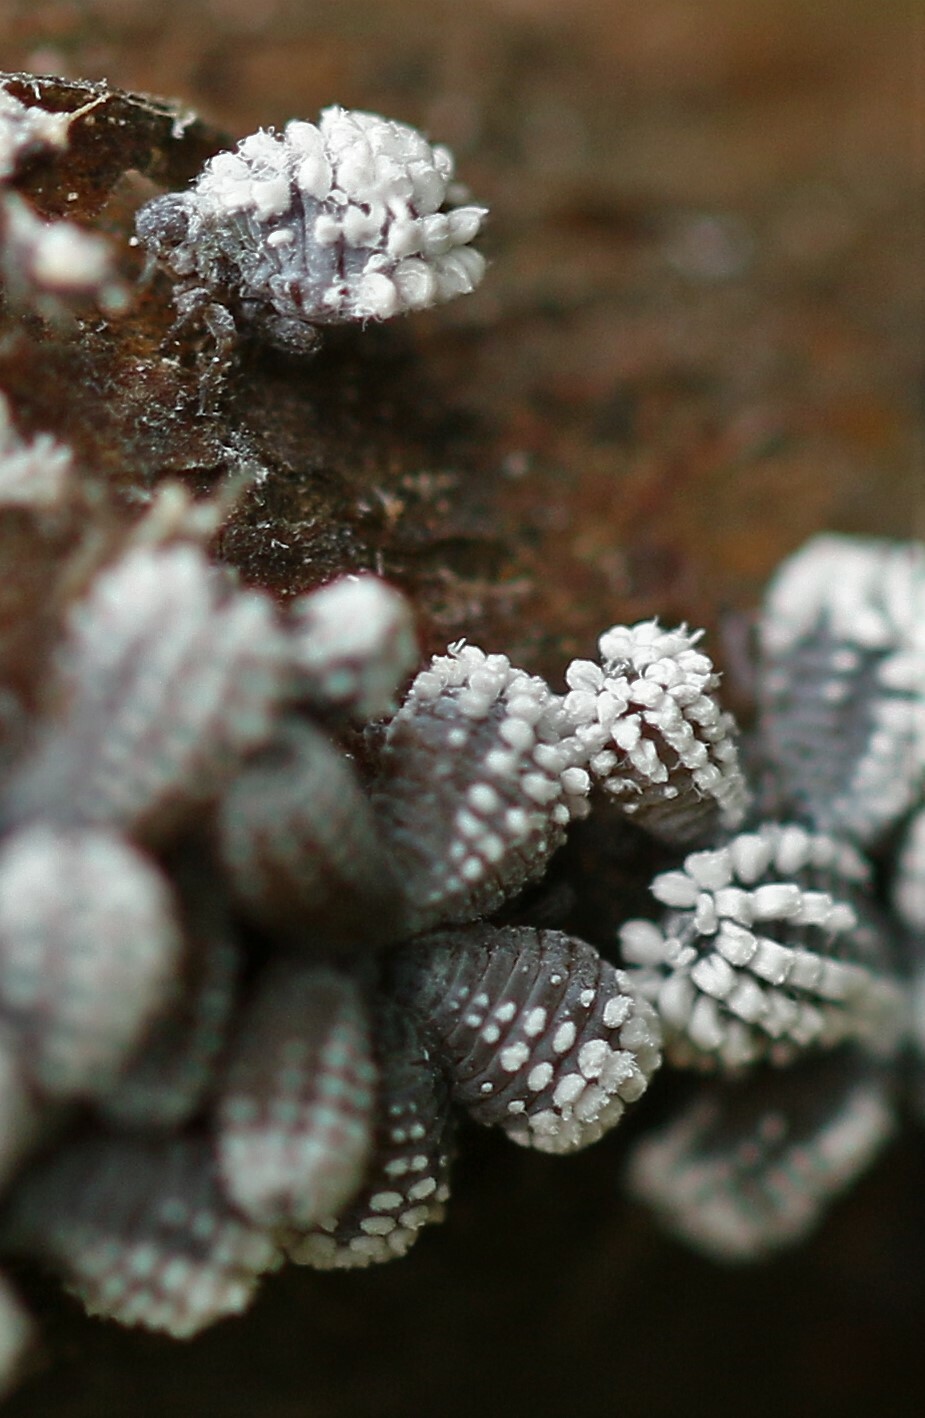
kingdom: Animalia
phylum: Arthropoda
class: Insecta
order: Hemiptera
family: Aphididae
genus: Prociphilus
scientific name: Prociphilus tessellatus
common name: Woolly alder aphid
